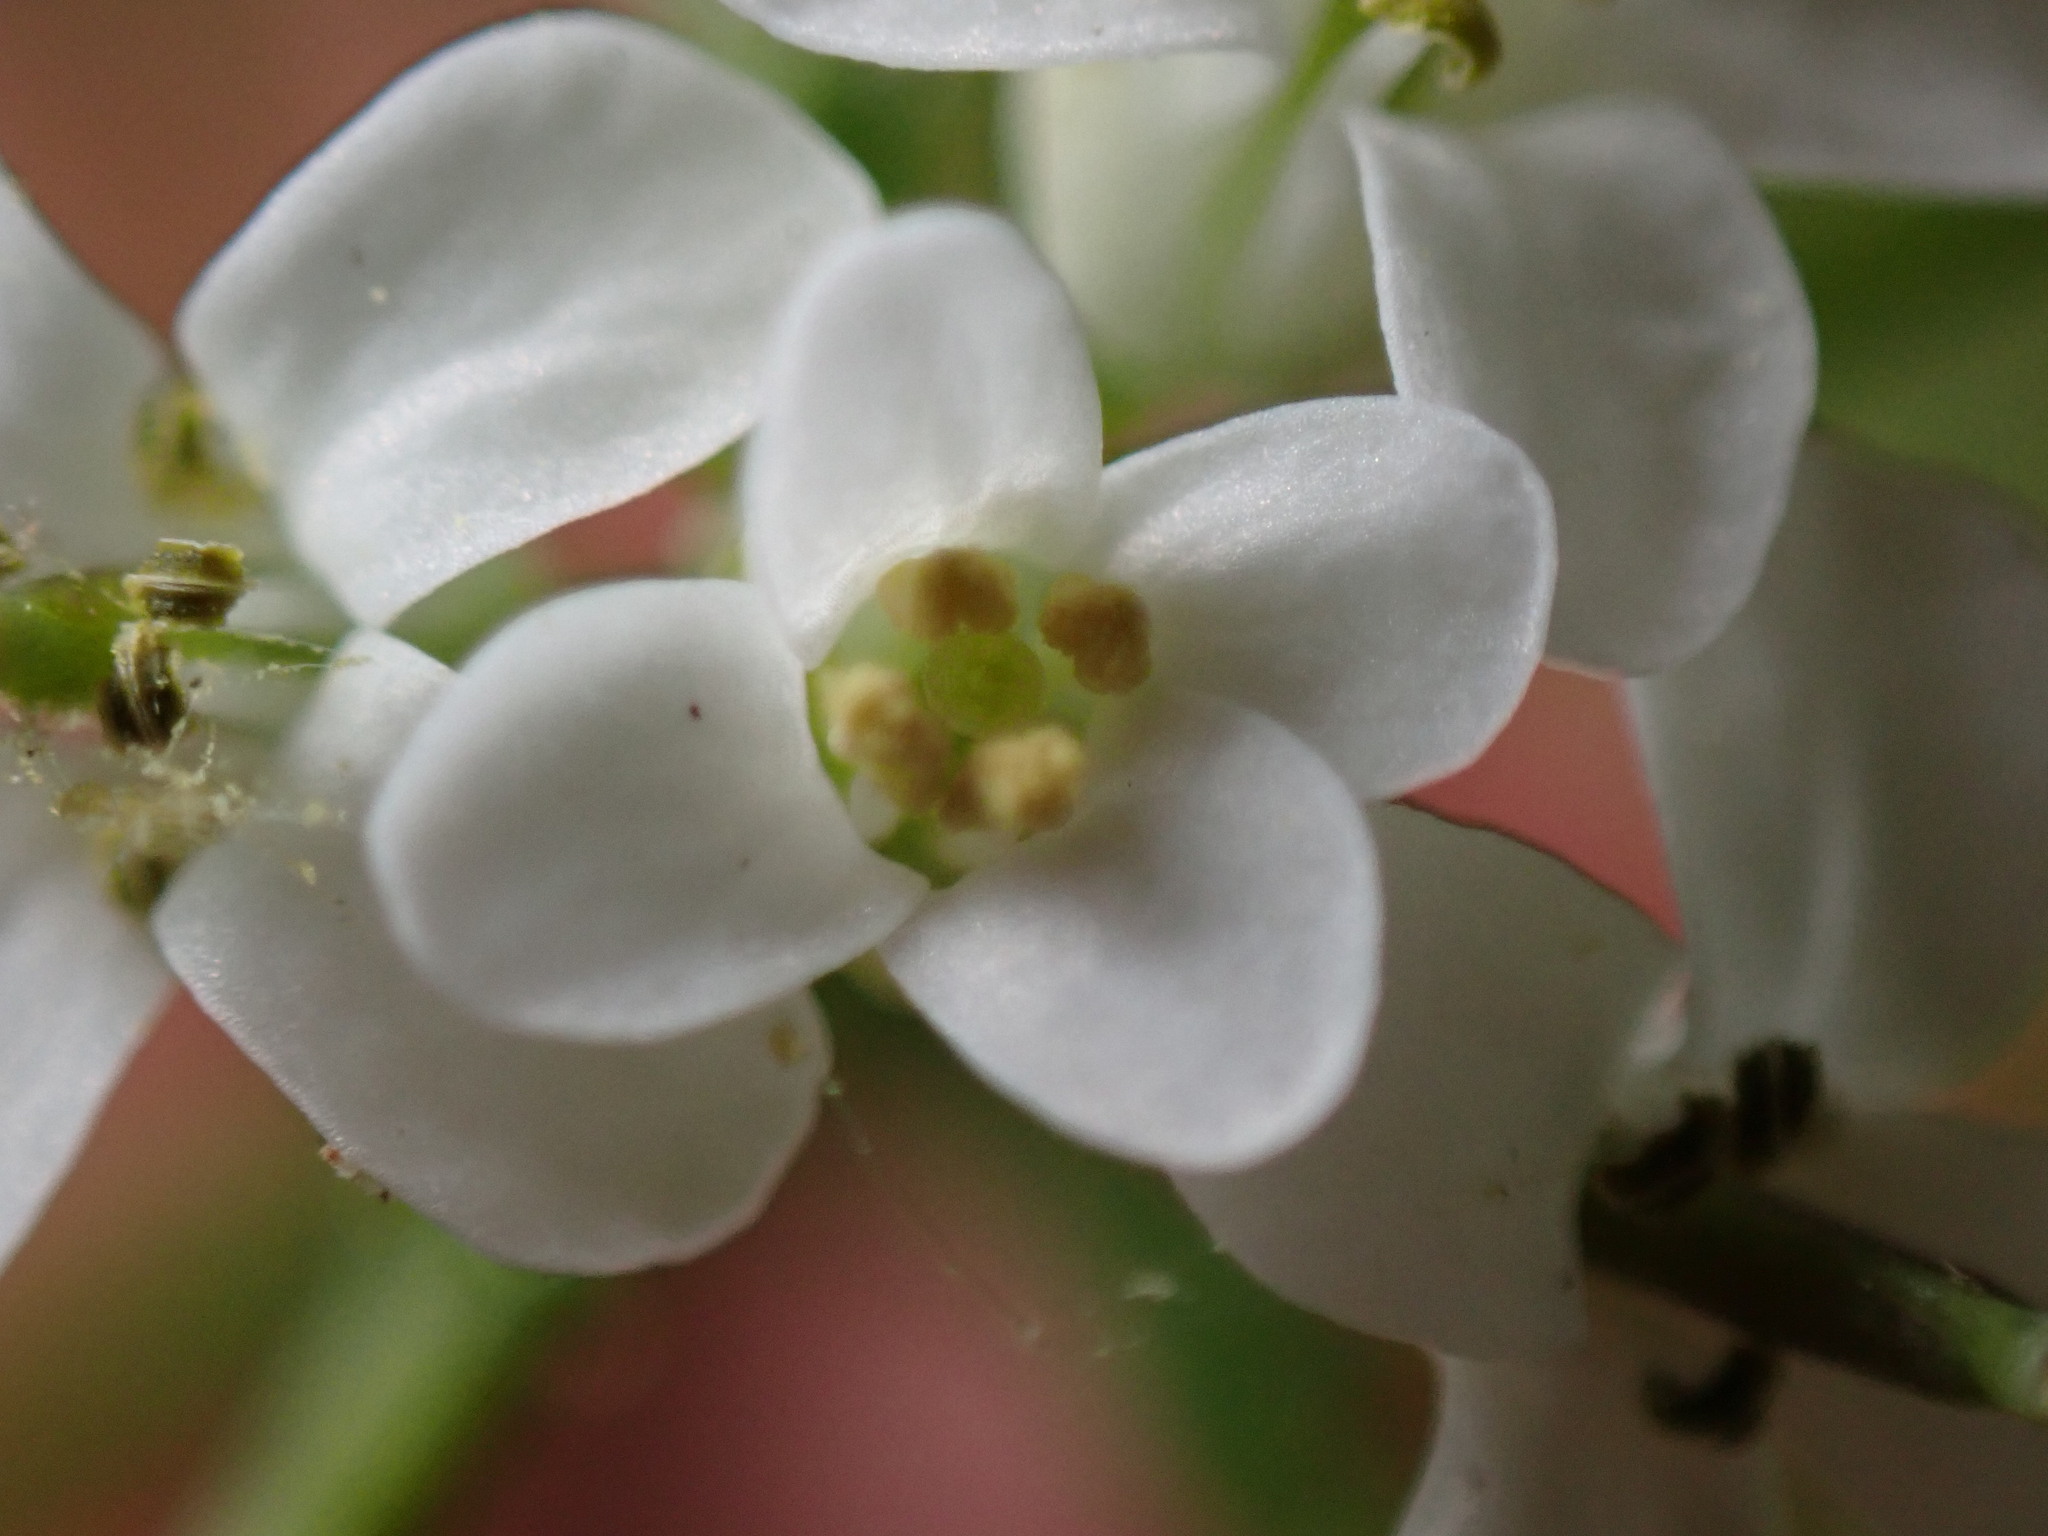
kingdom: Plantae
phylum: Tracheophyta
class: Magnoliopsida
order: Brassicales
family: Brassicaceae
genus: Alliaria
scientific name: Alliaria petiolata
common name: Garlic mustard
